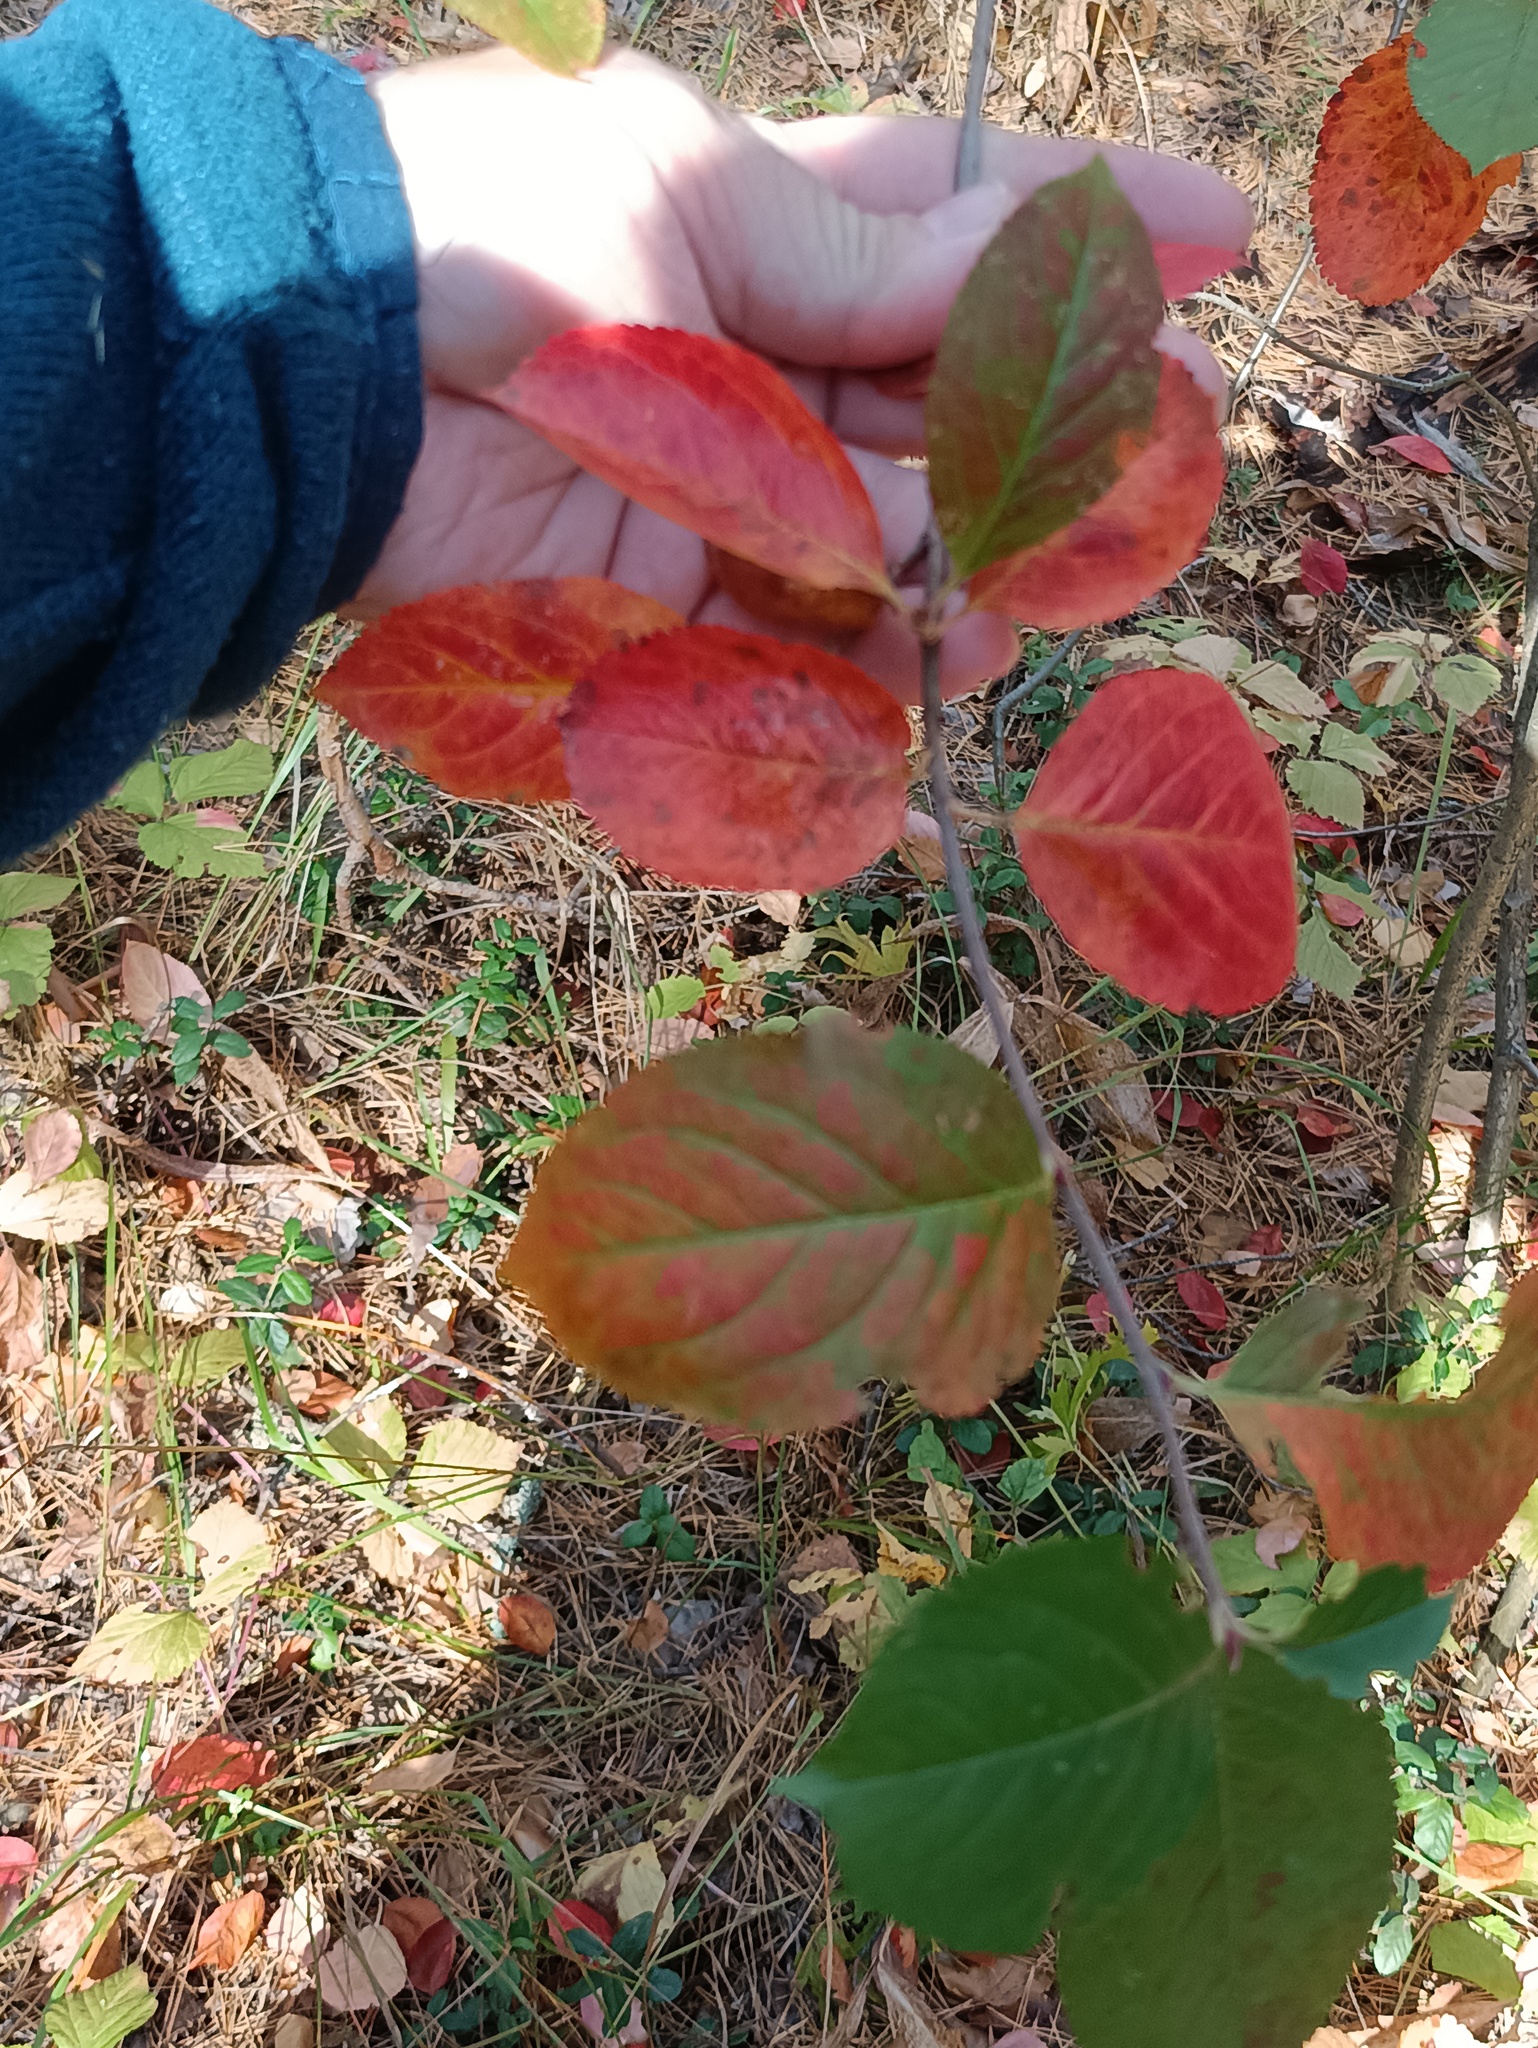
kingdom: Plantae
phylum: Tracheophyta
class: Magnoliopsida
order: Rosales
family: Rosaceae
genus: Sorbaronia
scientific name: Sorbaronia arsenii
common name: Arsène's mountain-ash
